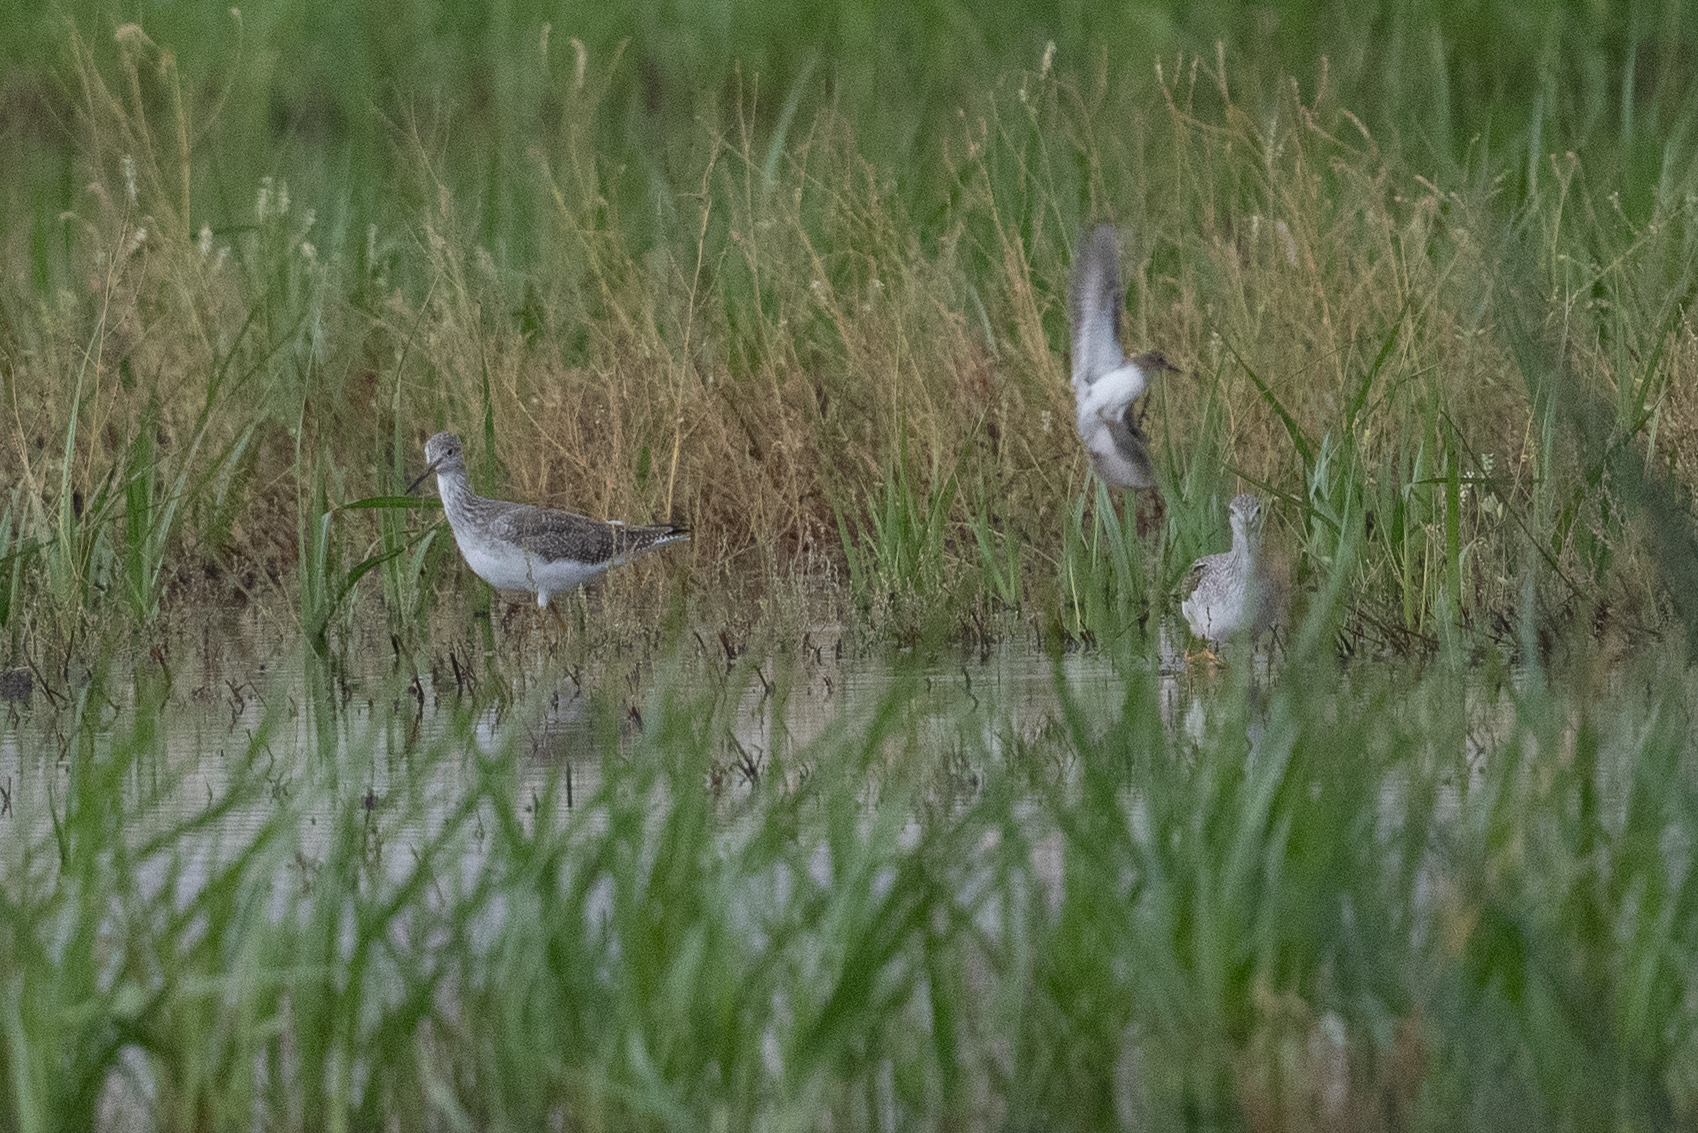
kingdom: Animalia
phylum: Chordata
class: Aves
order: Charadriiformes
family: Scolopacidae
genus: Tringa
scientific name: Tringa melanoleuca
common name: Greater yellowlegs
